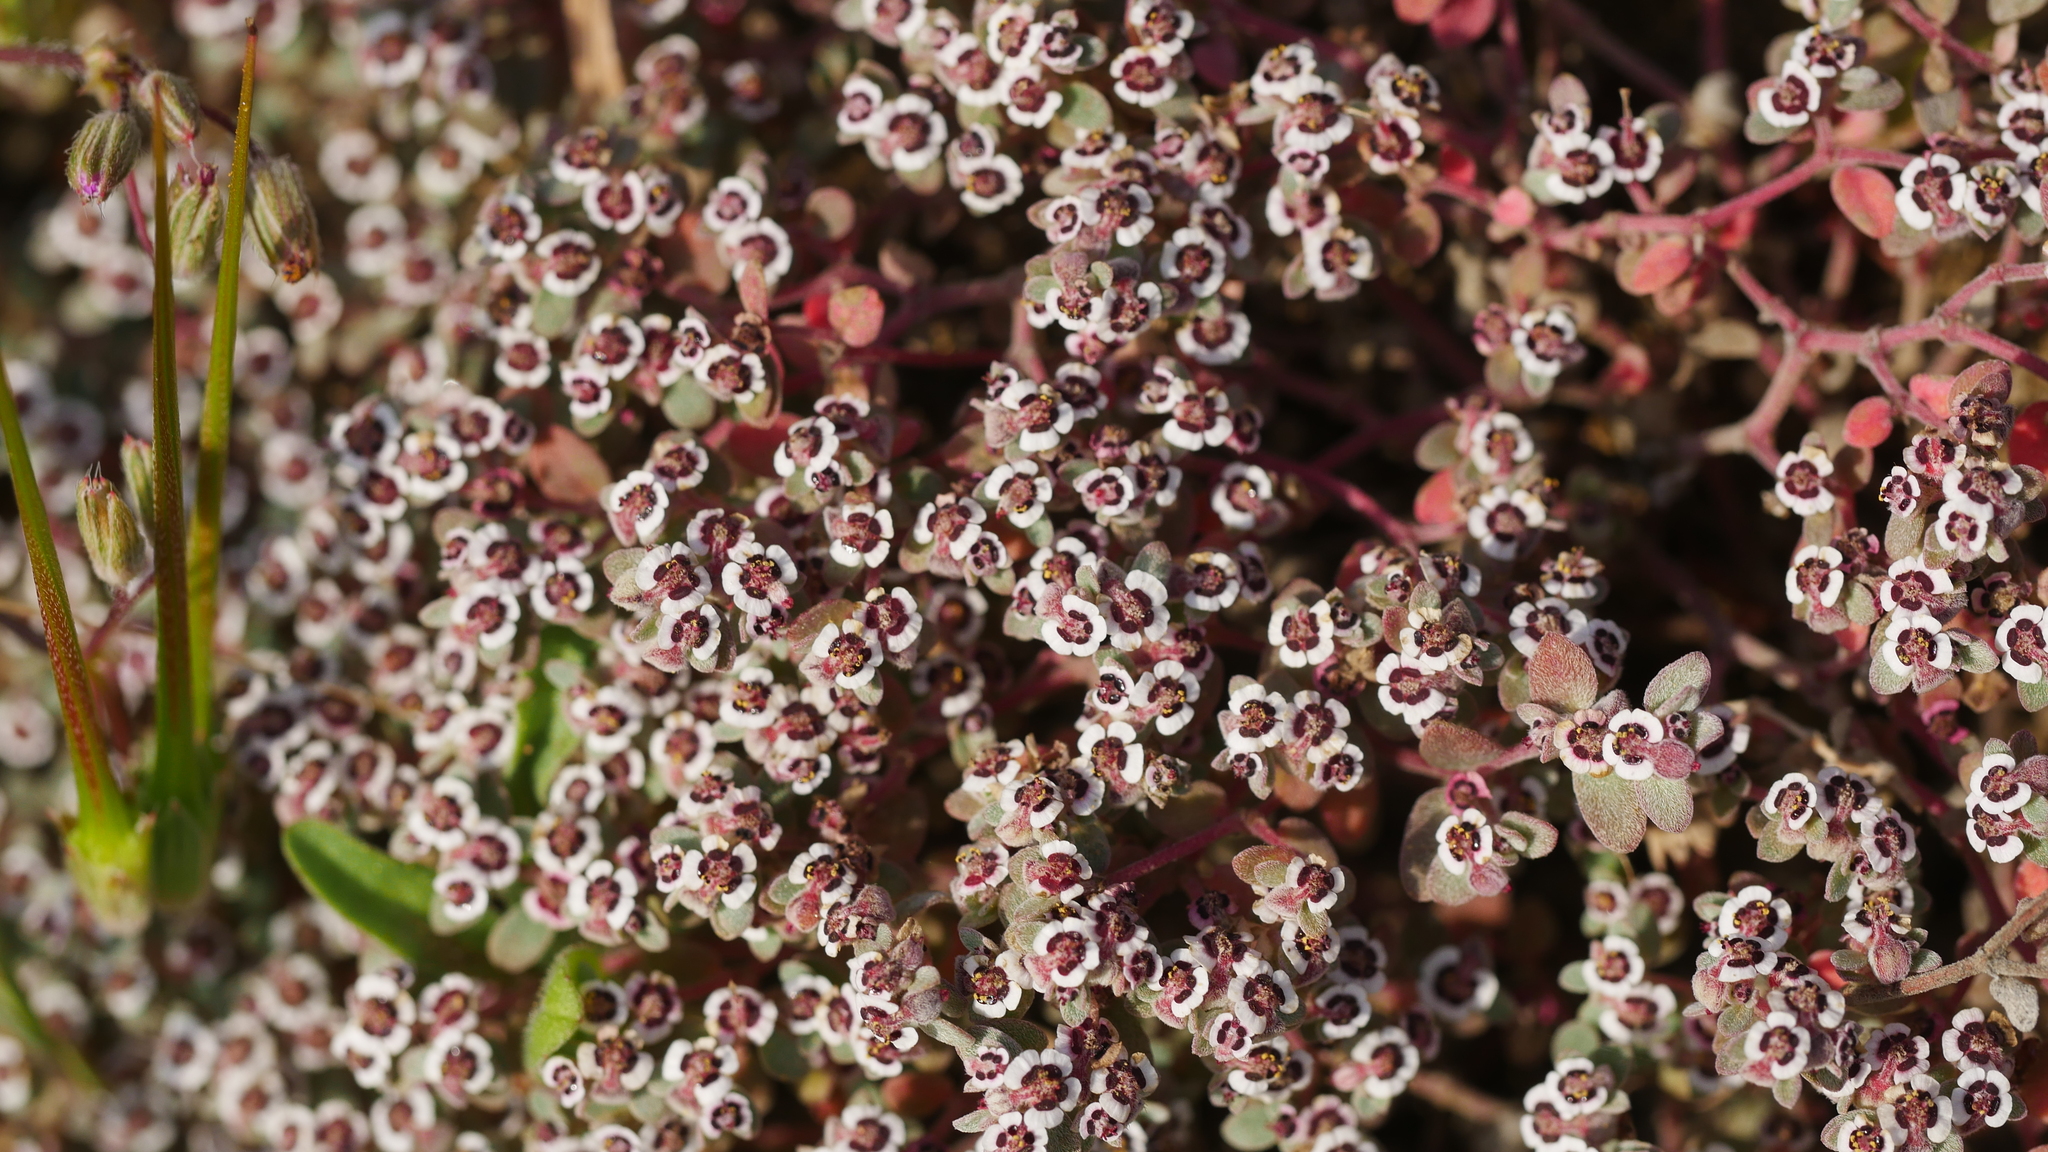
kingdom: Plantae
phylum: Tracheophyta
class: Magnoliopsida
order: Malpighiales
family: Euphorbiaceae
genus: Euphorbia
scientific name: Euphorbia melanadenia
